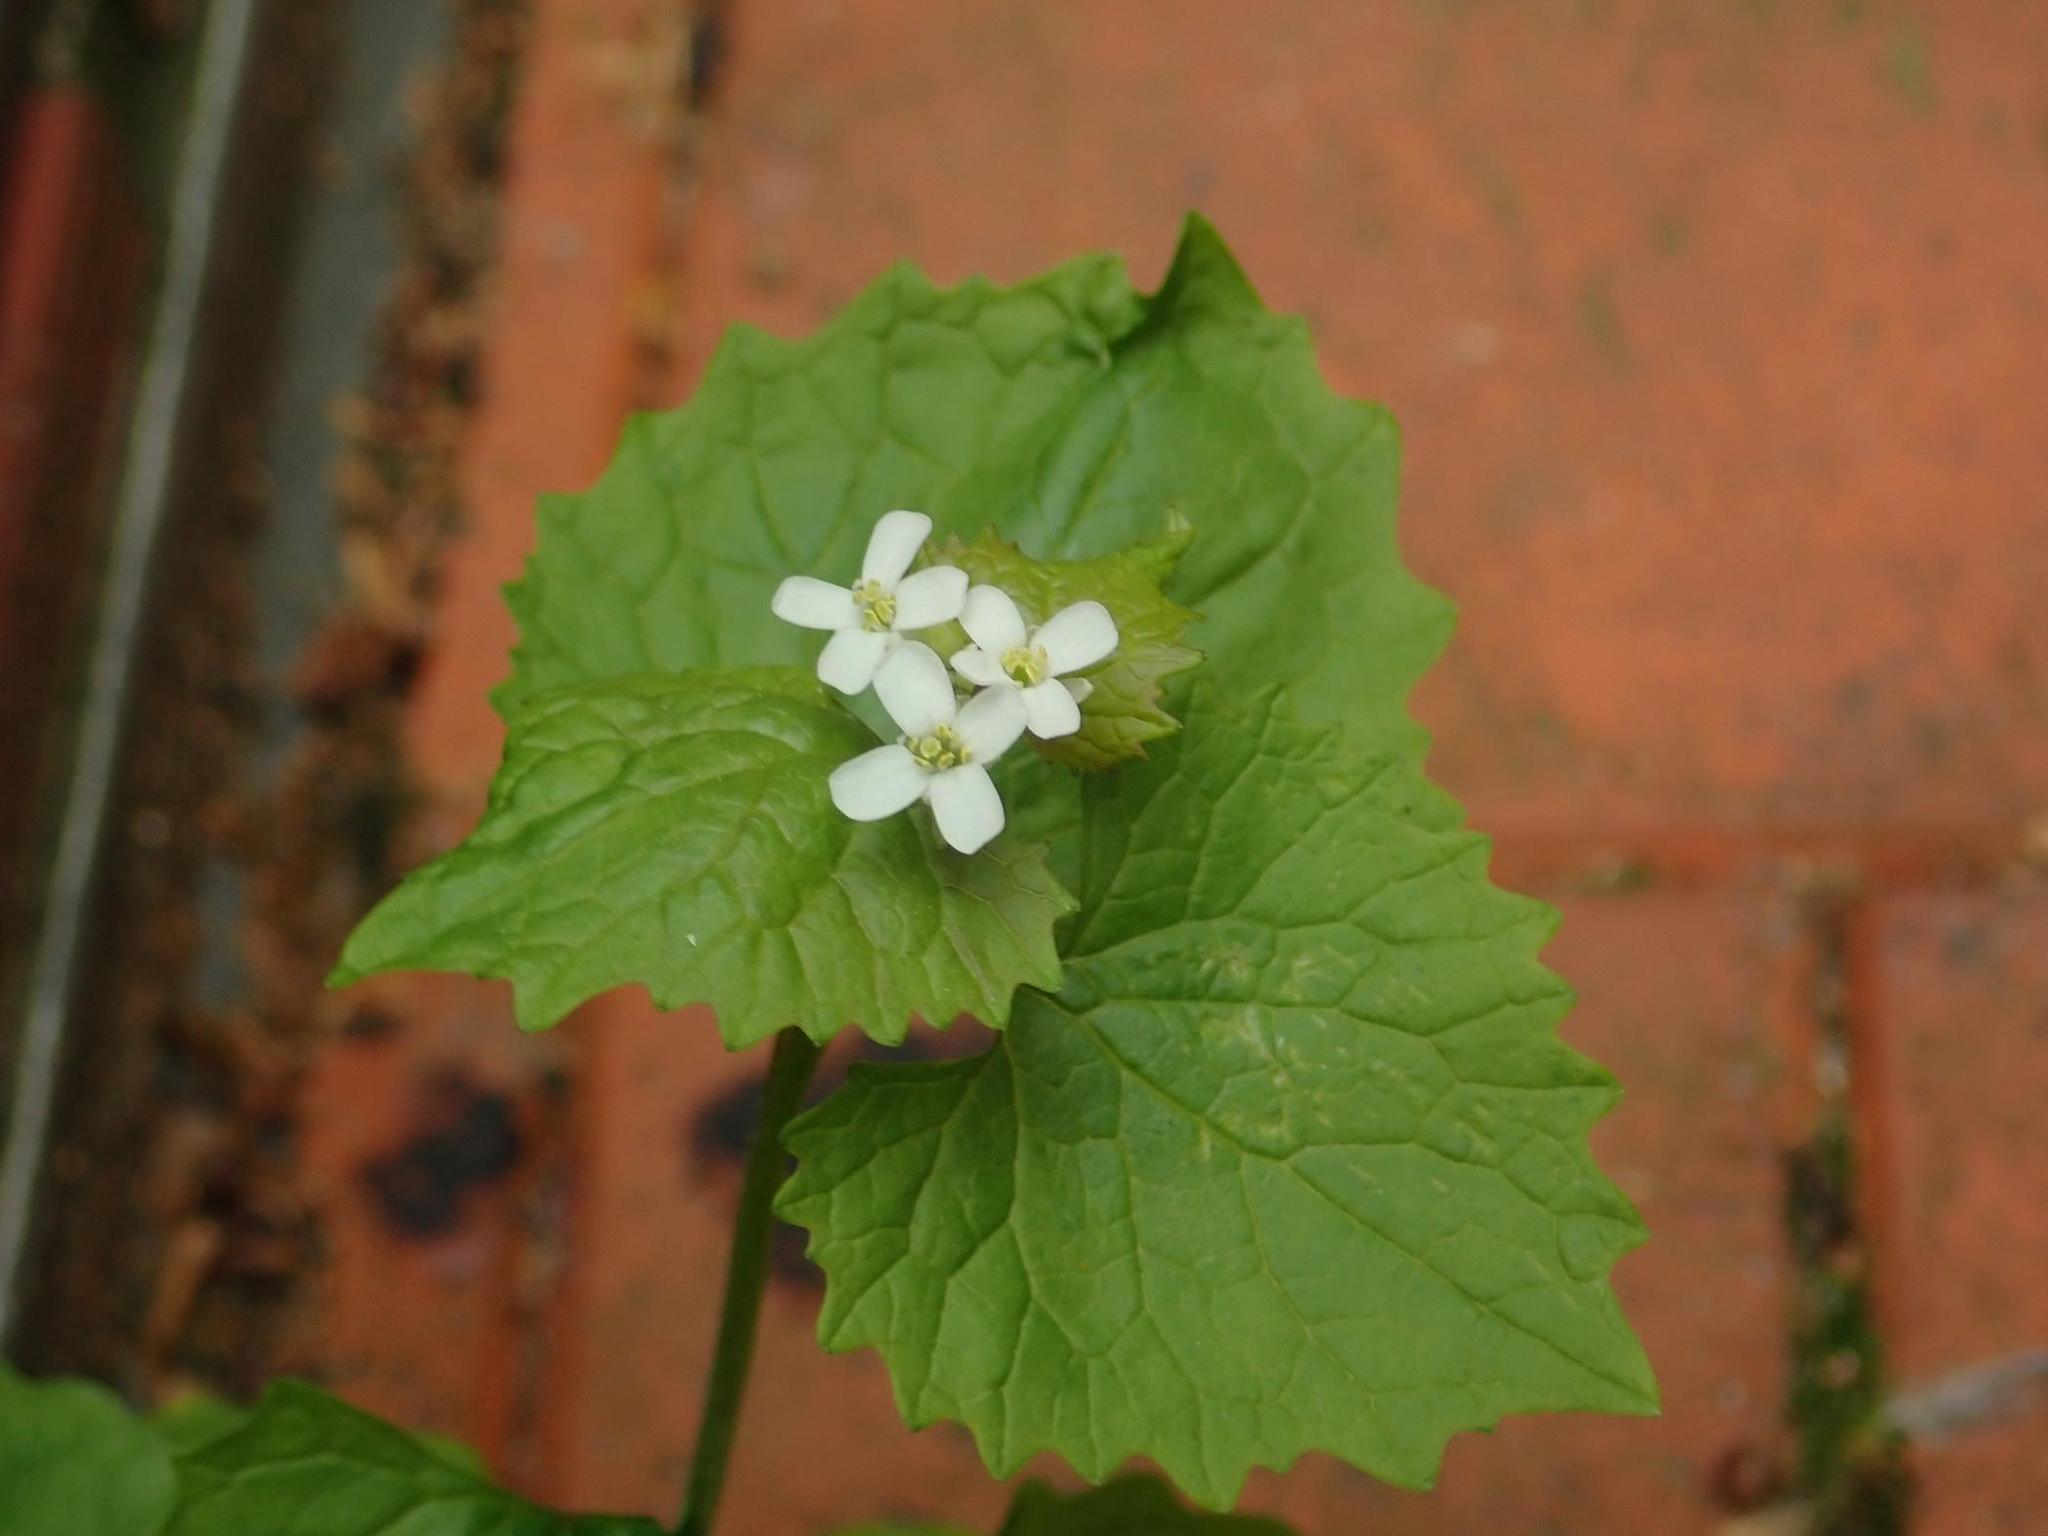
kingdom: Plantae
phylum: Tracheophyta
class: Magnoliopsida
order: Brassicales
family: Brassicaceae
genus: Alliaria
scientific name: Alliaria petiolata
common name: Garlic mustard
